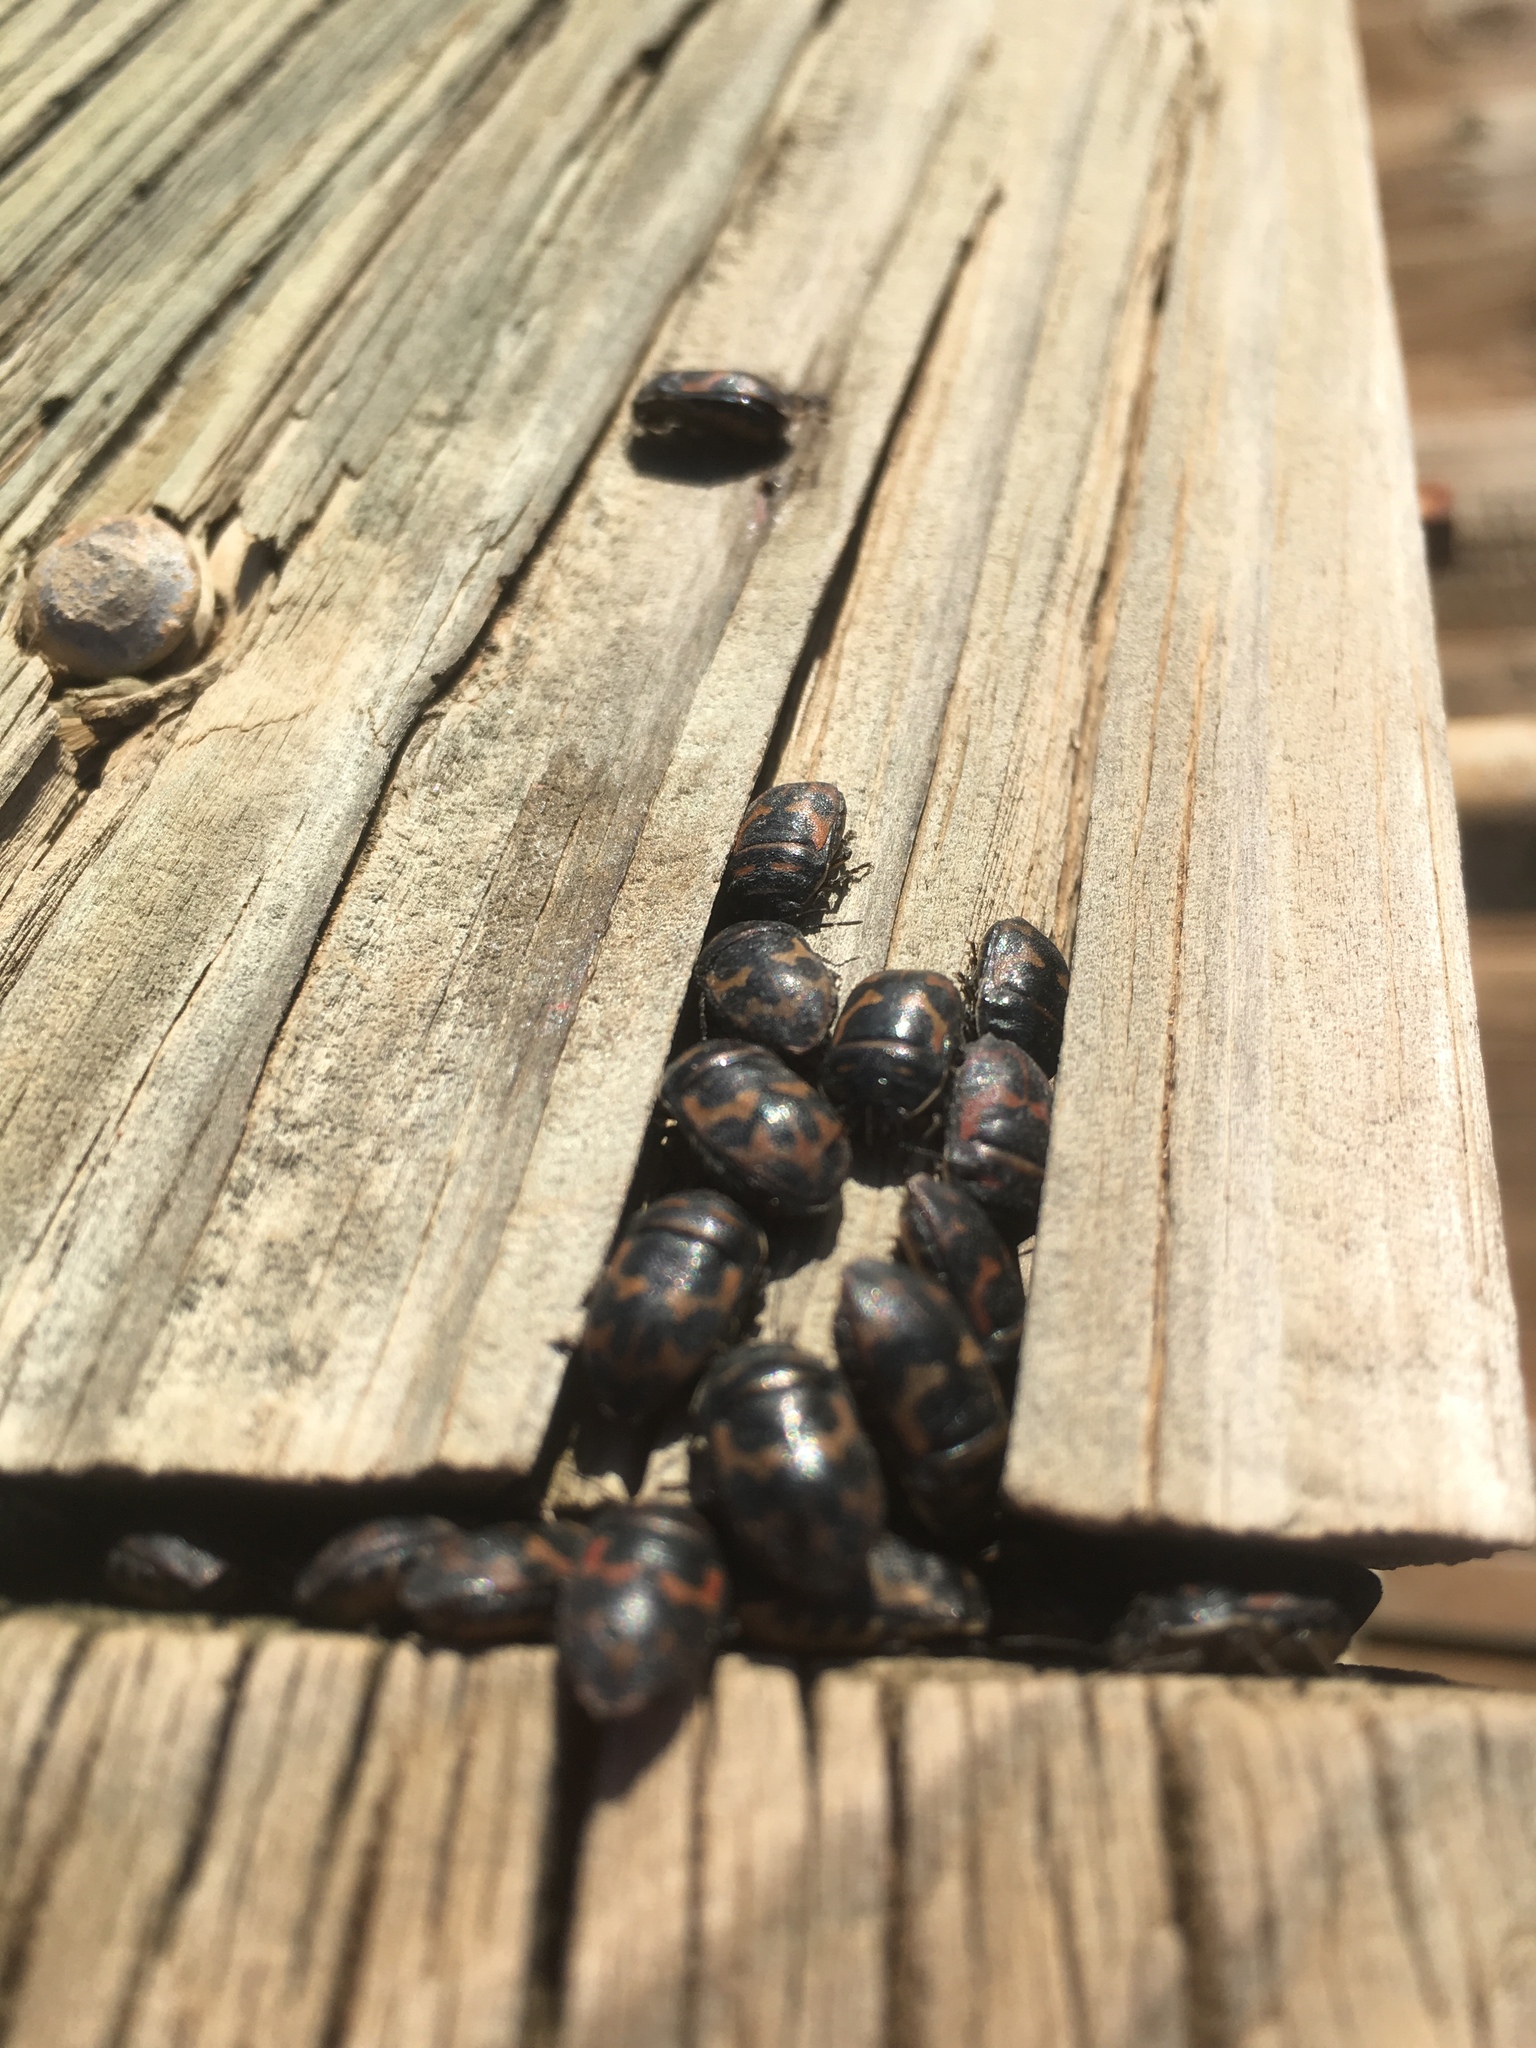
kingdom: Animalia
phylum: Arthropoda
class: Insecta
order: Hemiptera
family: Scutelleridae
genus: Choerocoris
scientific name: Choerocoris
